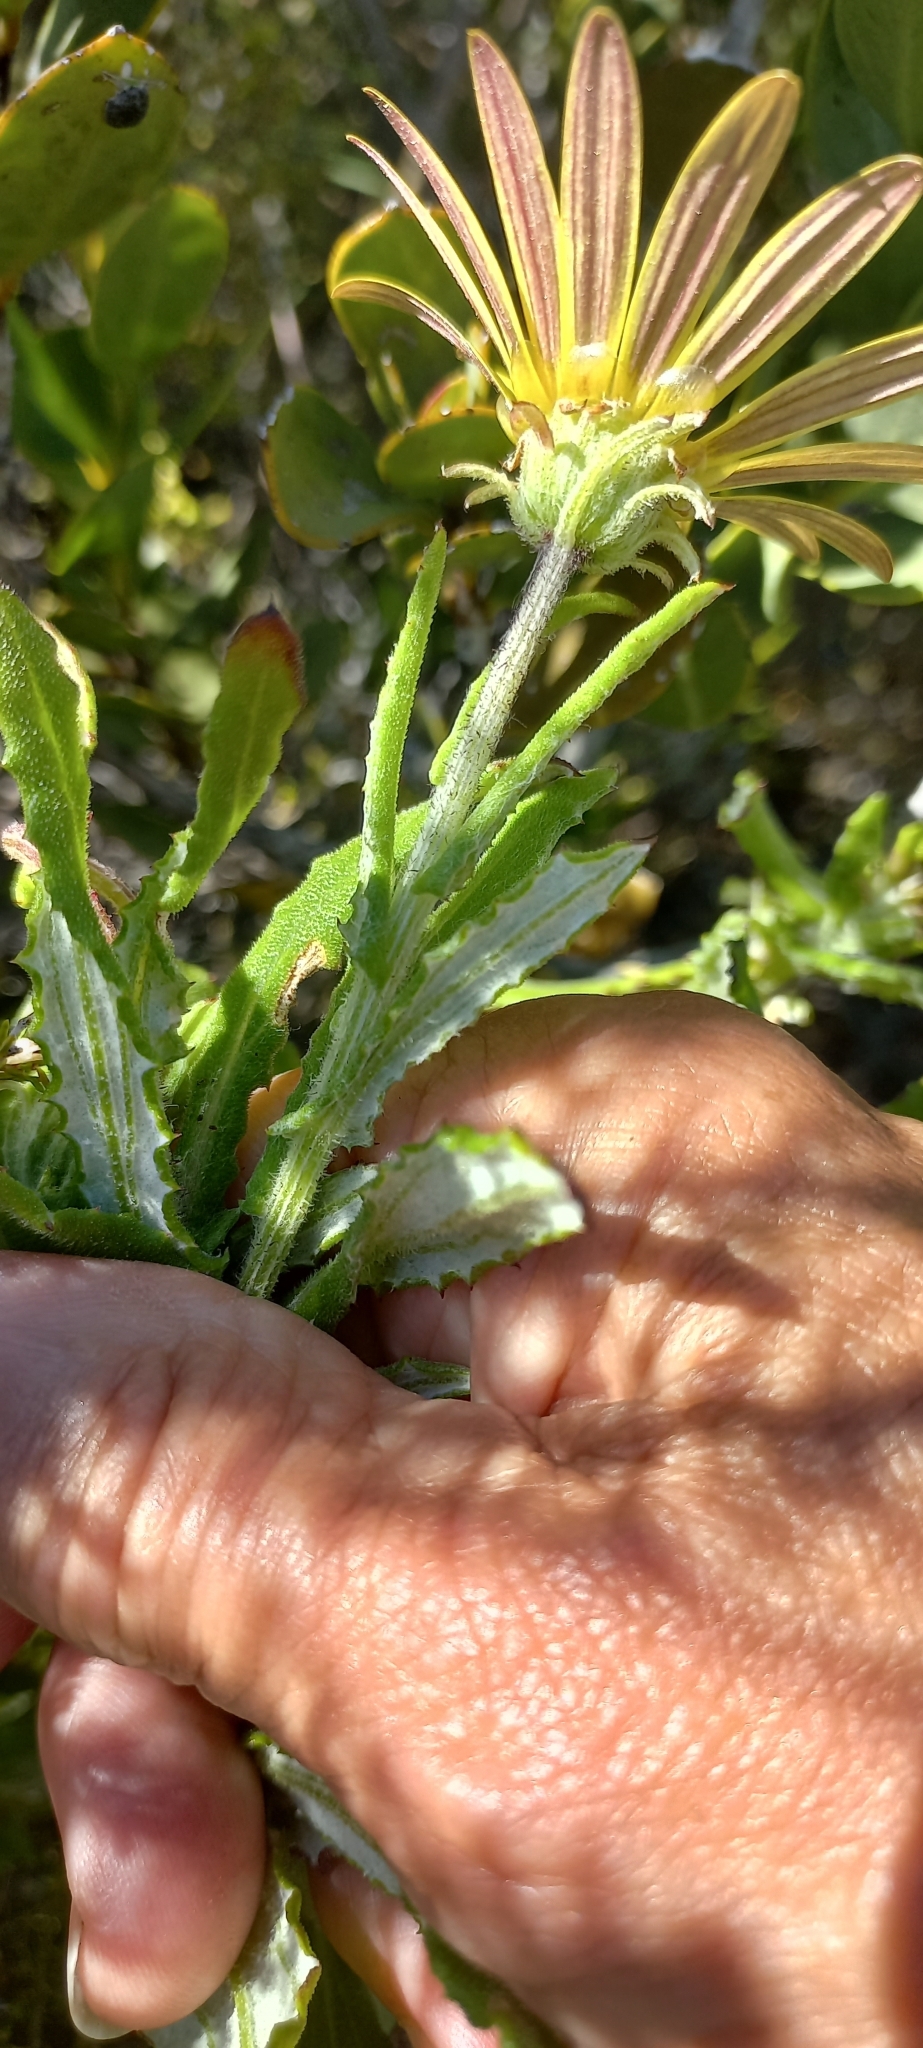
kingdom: Plantae
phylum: Tracheophyta
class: Magnoliopsida
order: Asterales
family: Asteraceae
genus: Arctotis
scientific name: Arctotis scabra
